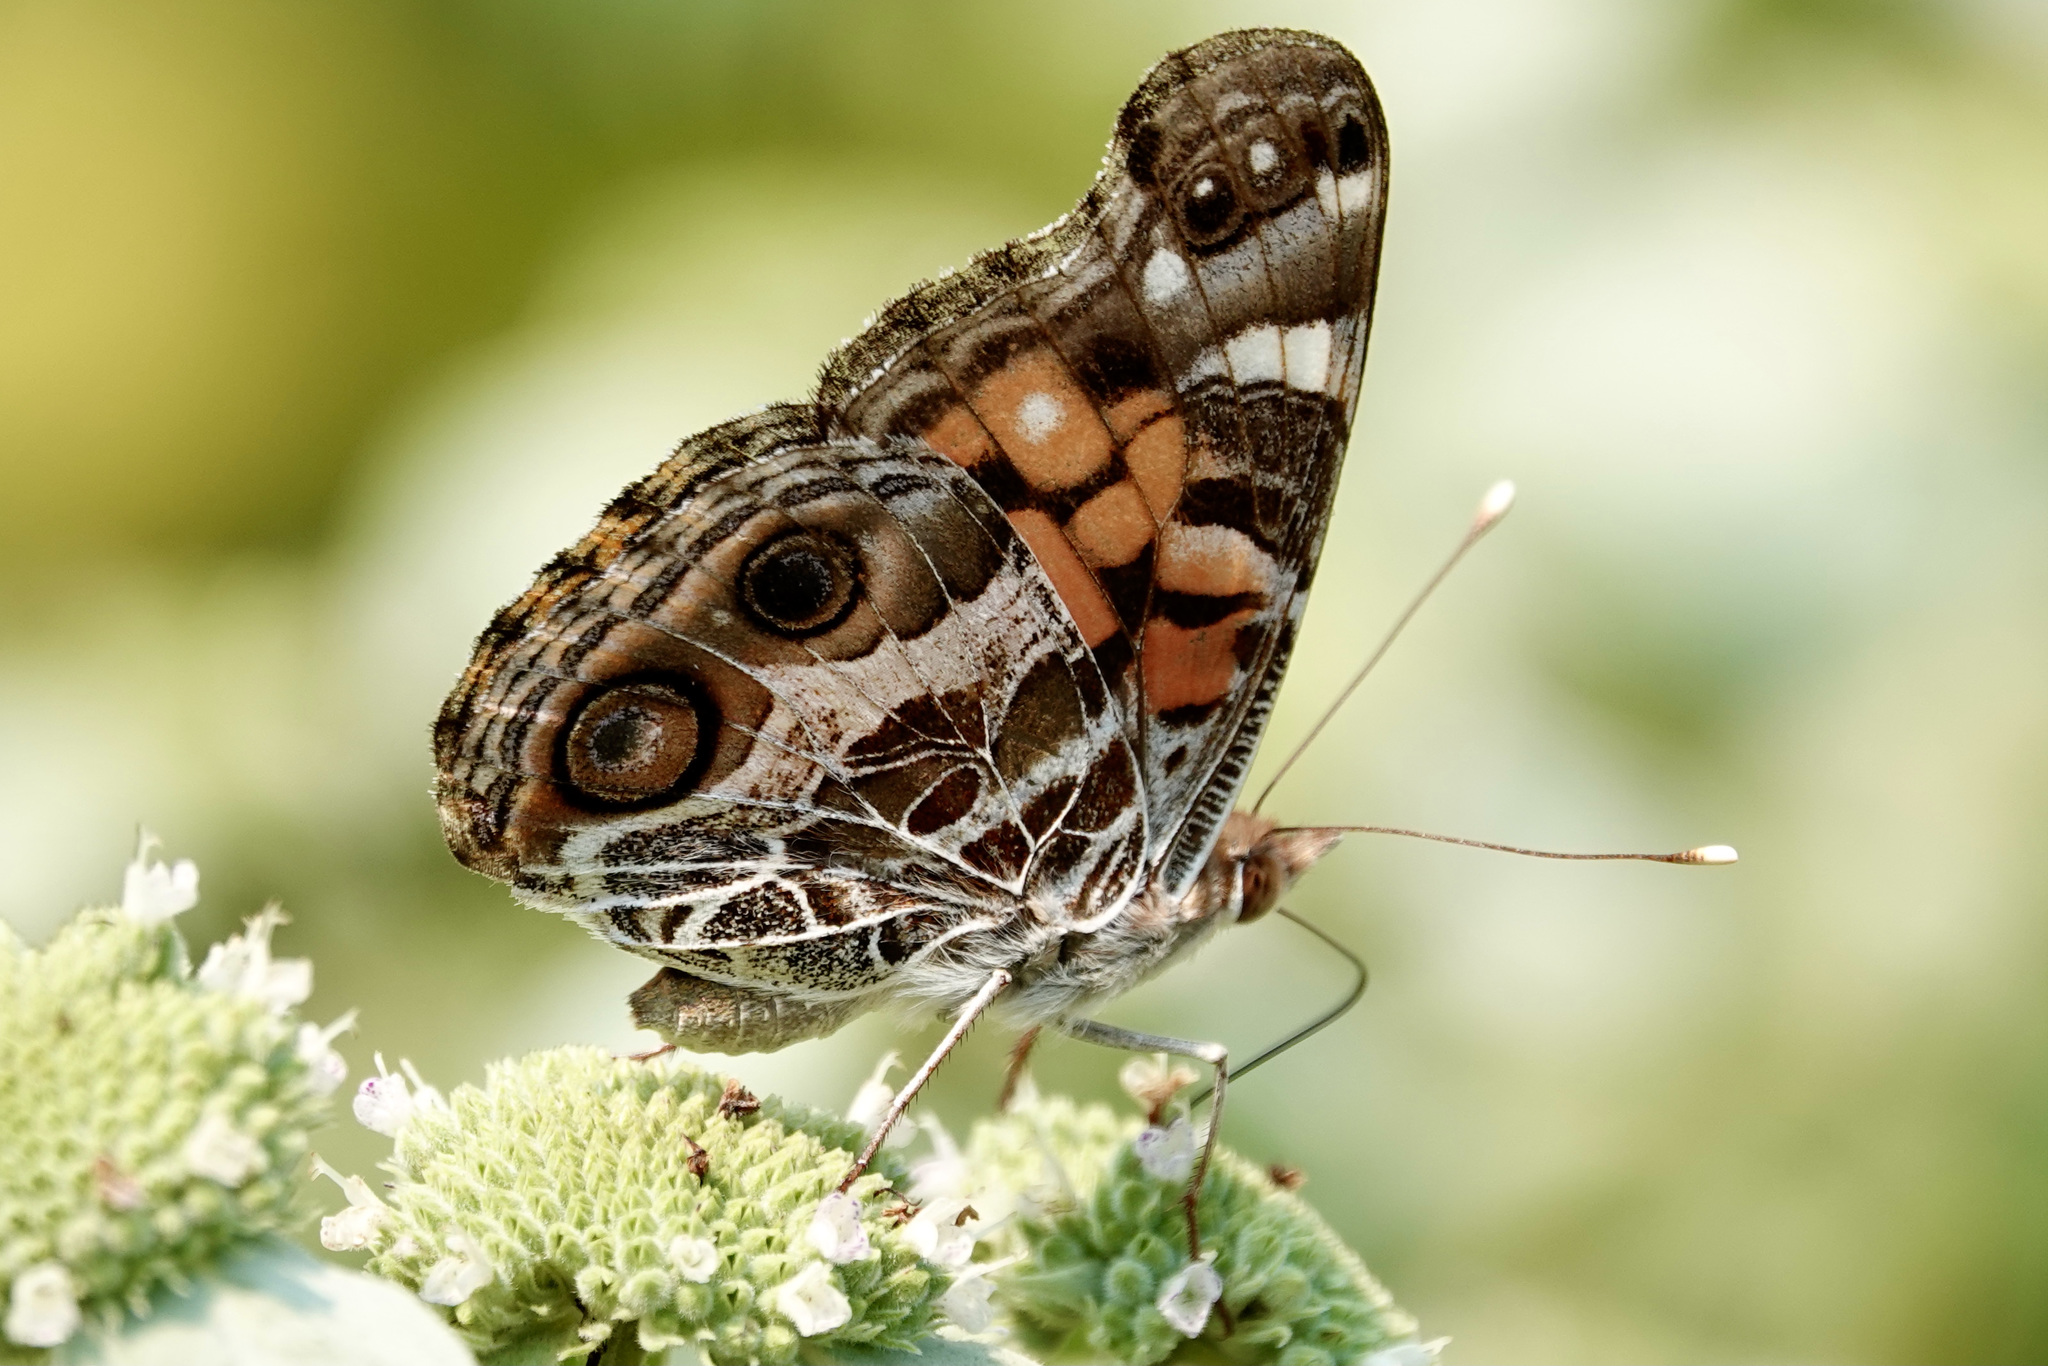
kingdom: Animalia
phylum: Arthropoda
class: Insecta
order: Lepidoptera
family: Nymphalidae
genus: Vanessa
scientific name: Vanessa virginiensis
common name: American lady
